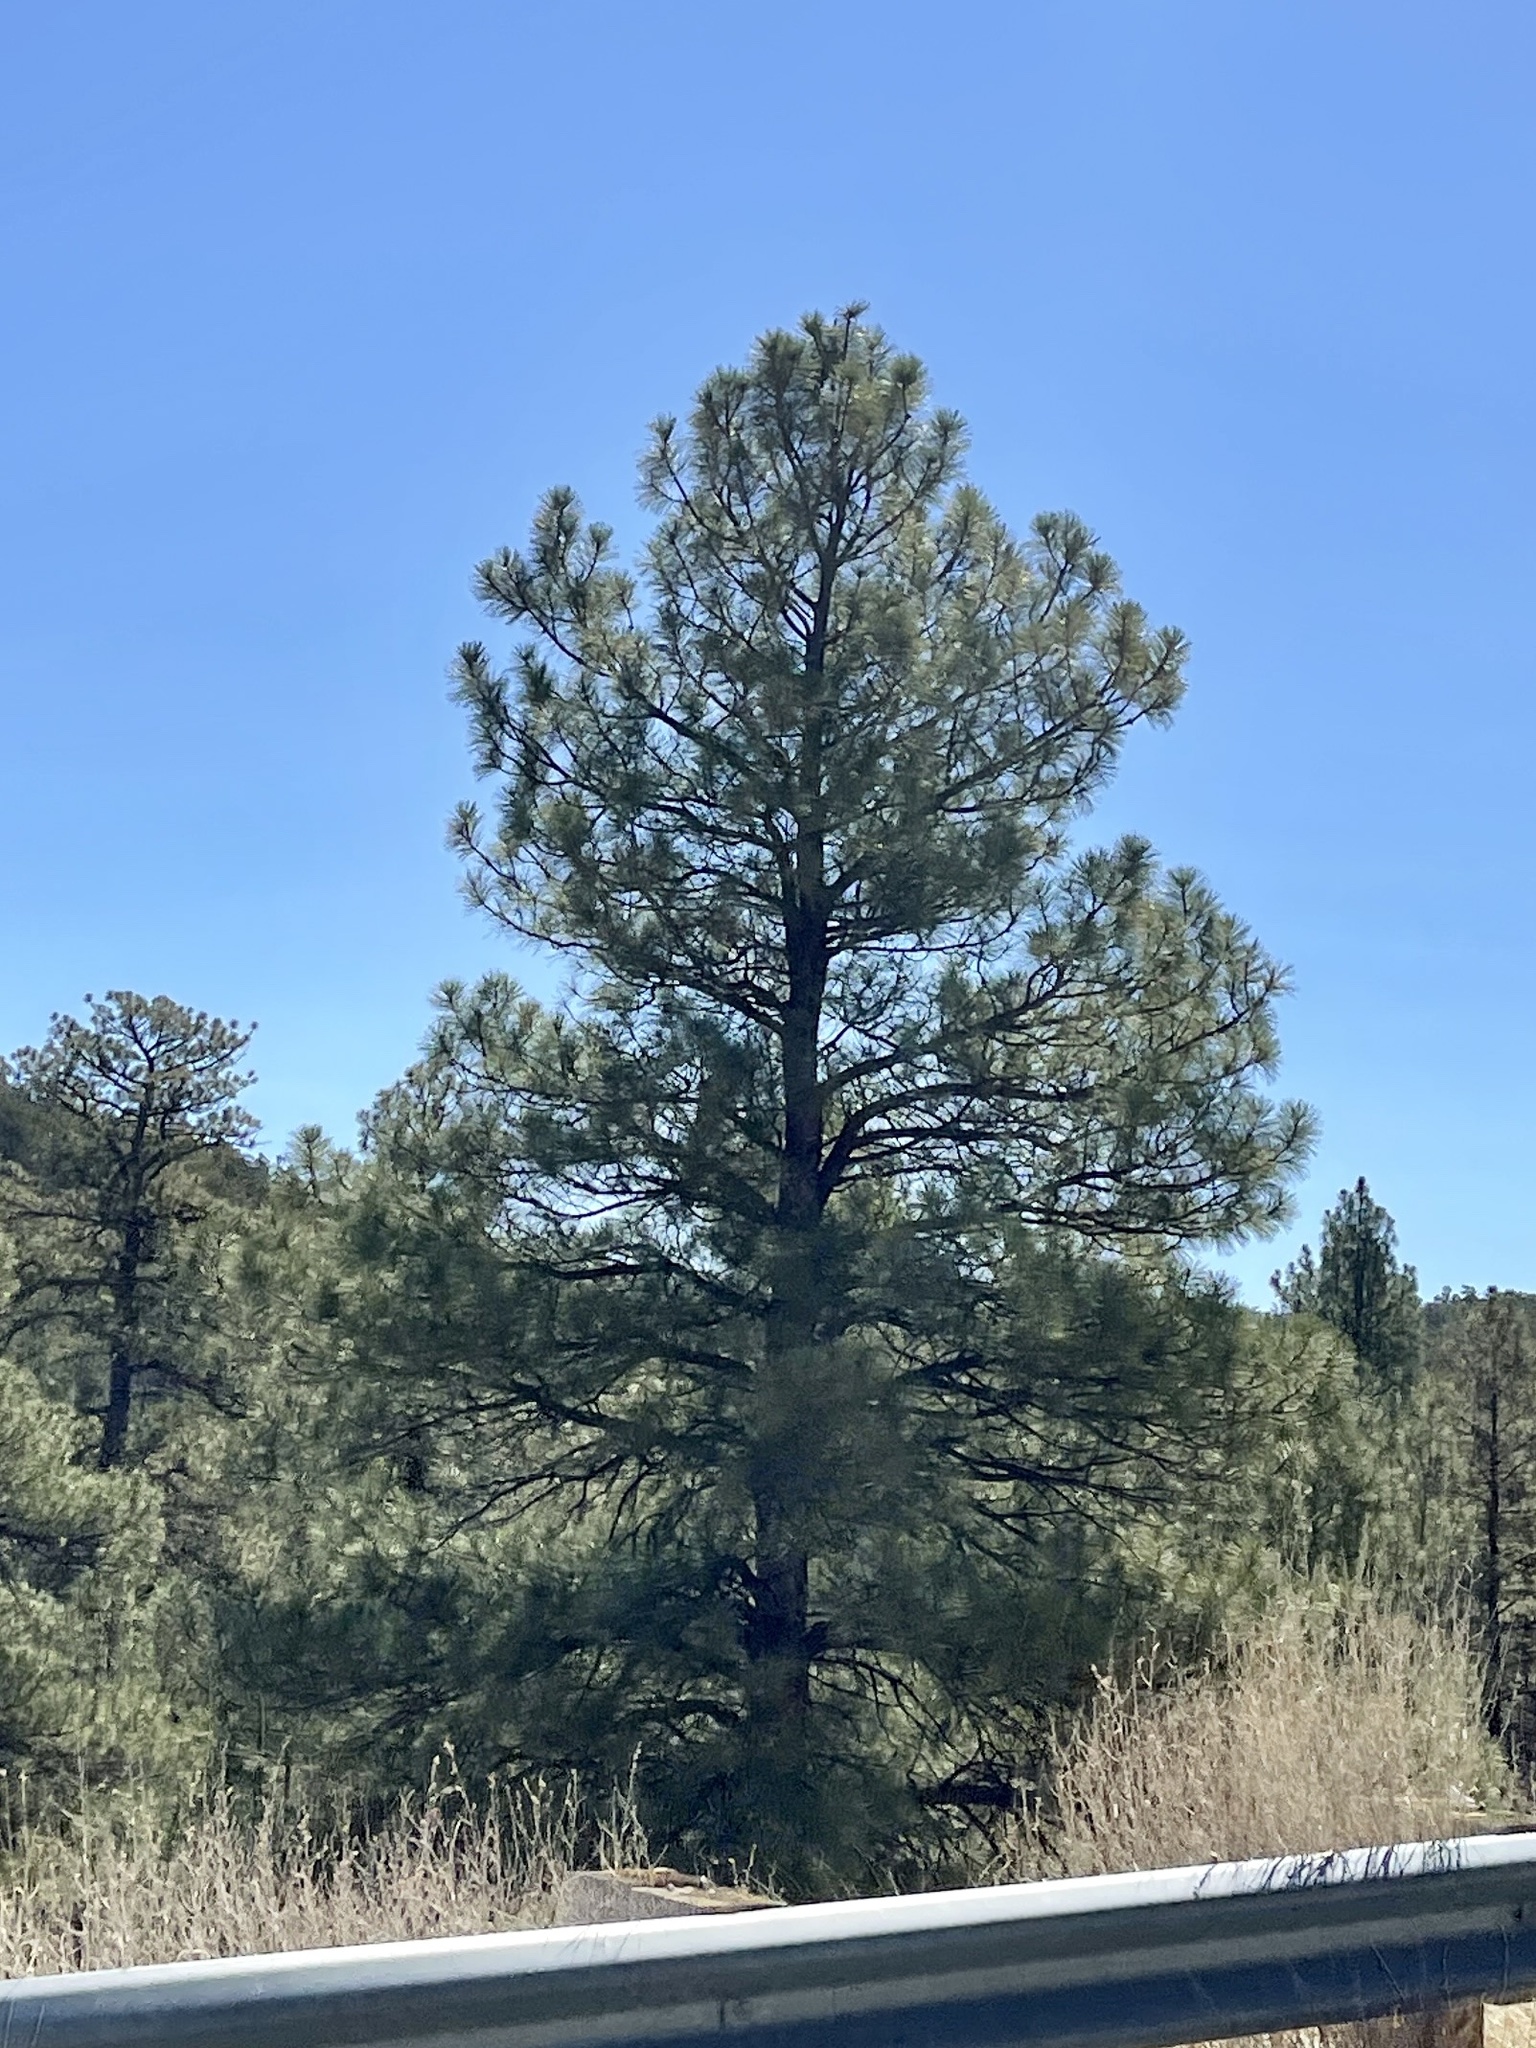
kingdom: Plantae
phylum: Tracheophyta
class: Pinopsida
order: Pinales
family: Pinaceae
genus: Pinus
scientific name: Pinus ponderosa
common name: Western yellow-pine
